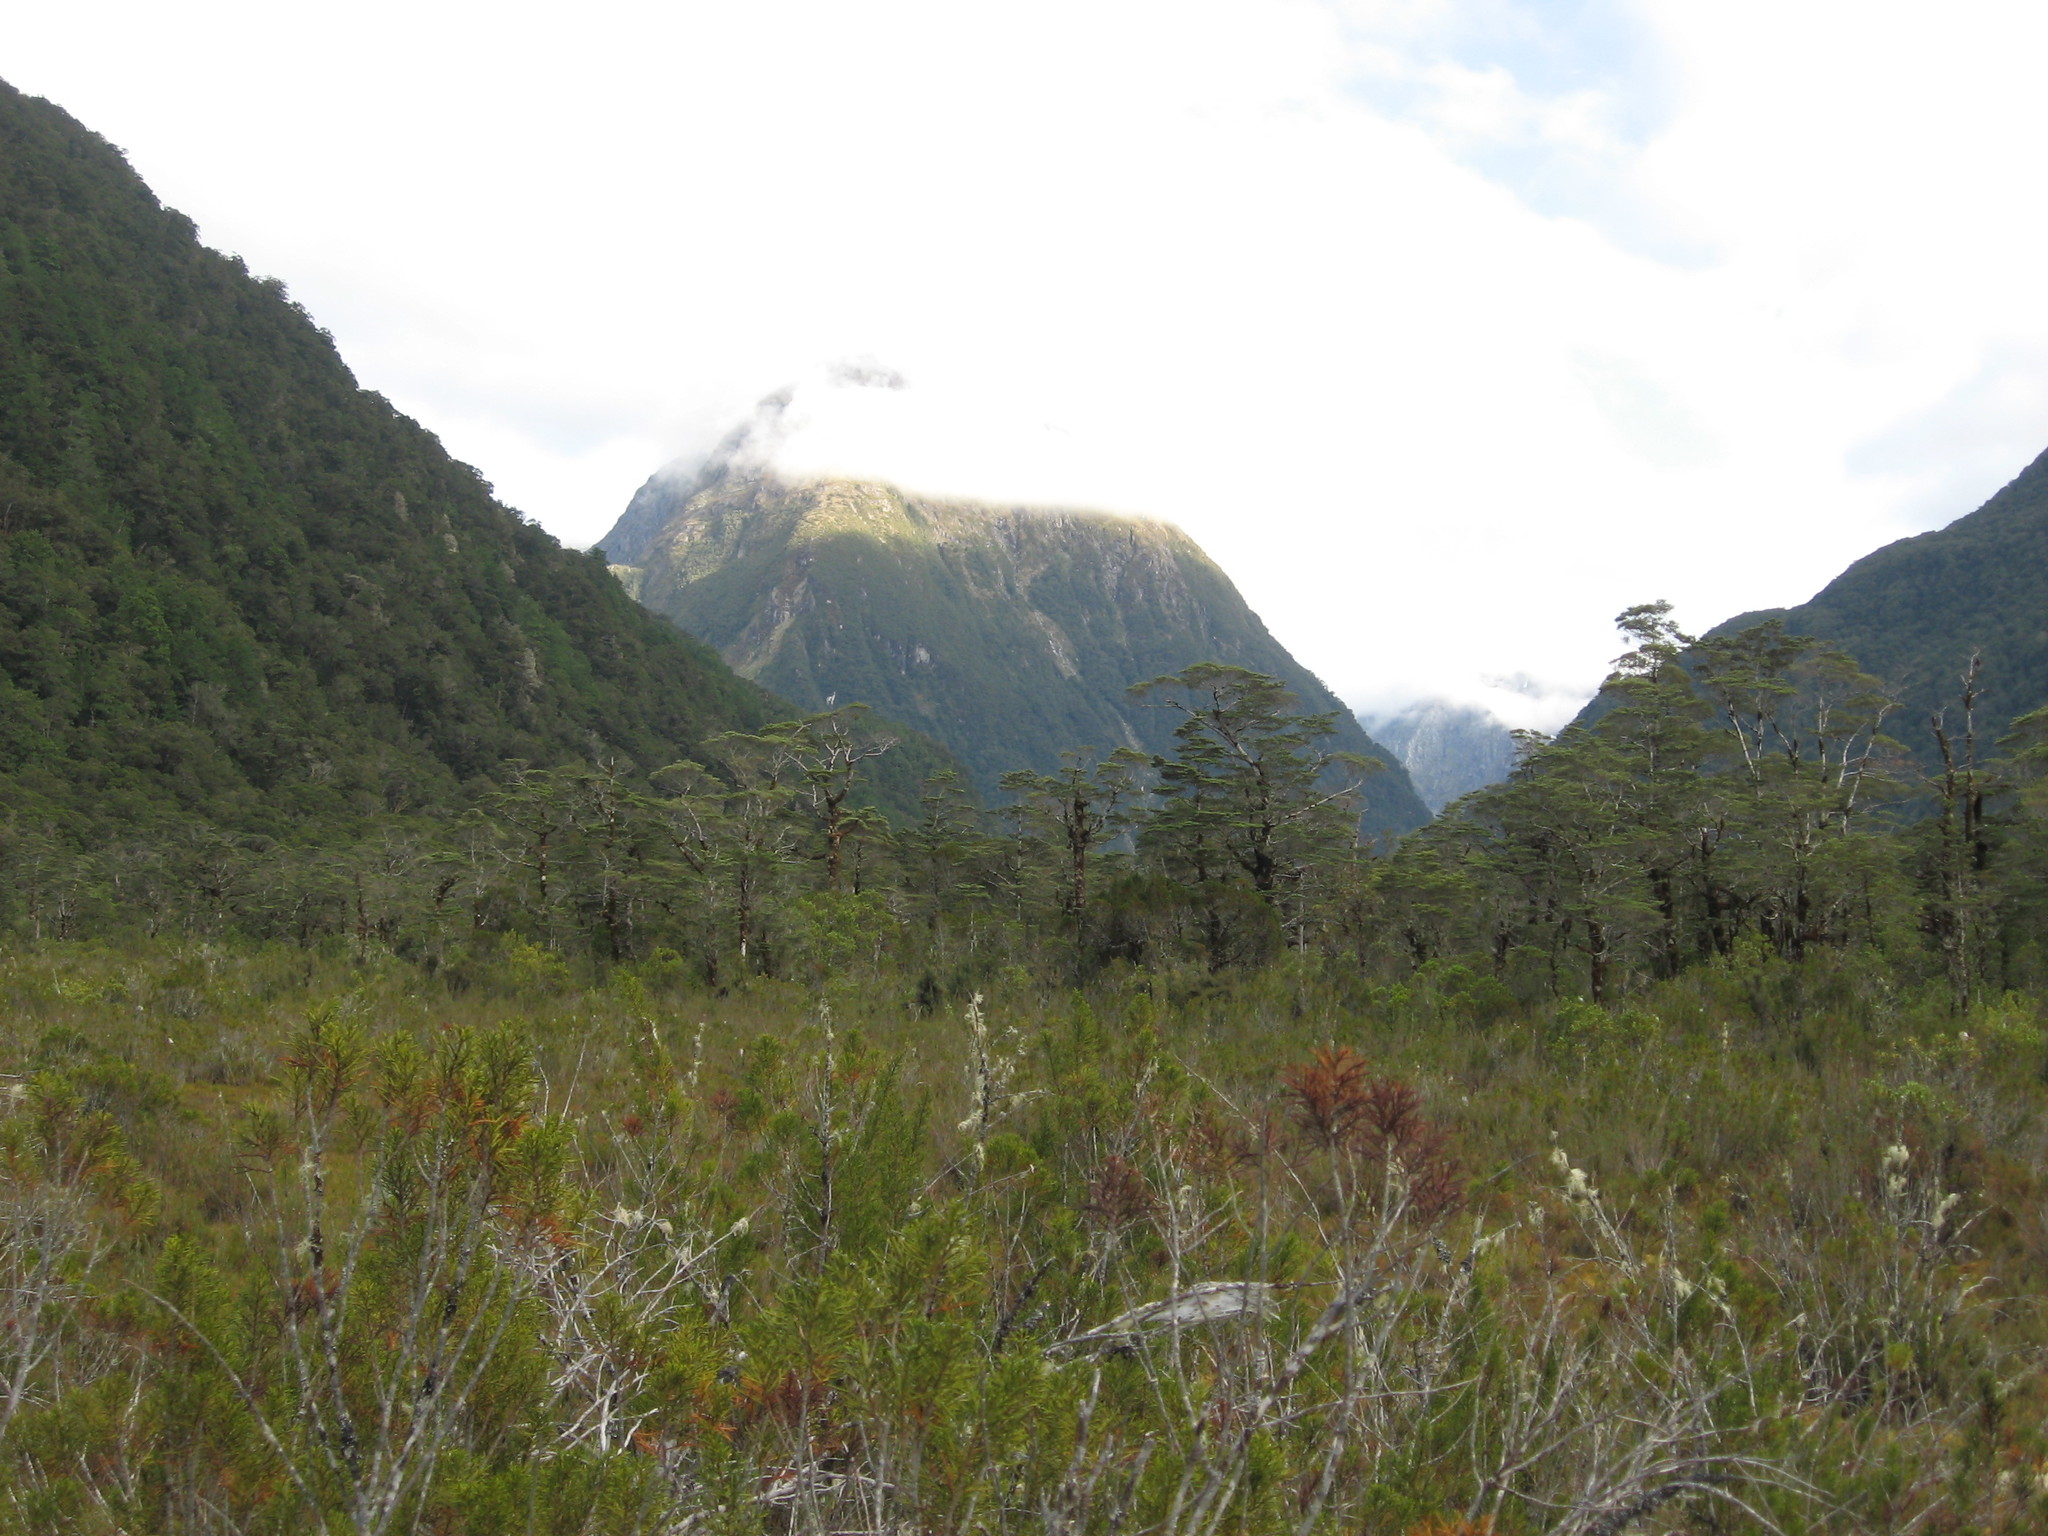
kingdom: Plantae
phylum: Tracheophyta
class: Magnoliopsida
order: Fagales
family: Nothofagaceae
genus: Nothofagus
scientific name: Nothofagus cliffortioides
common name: Mountain beech
